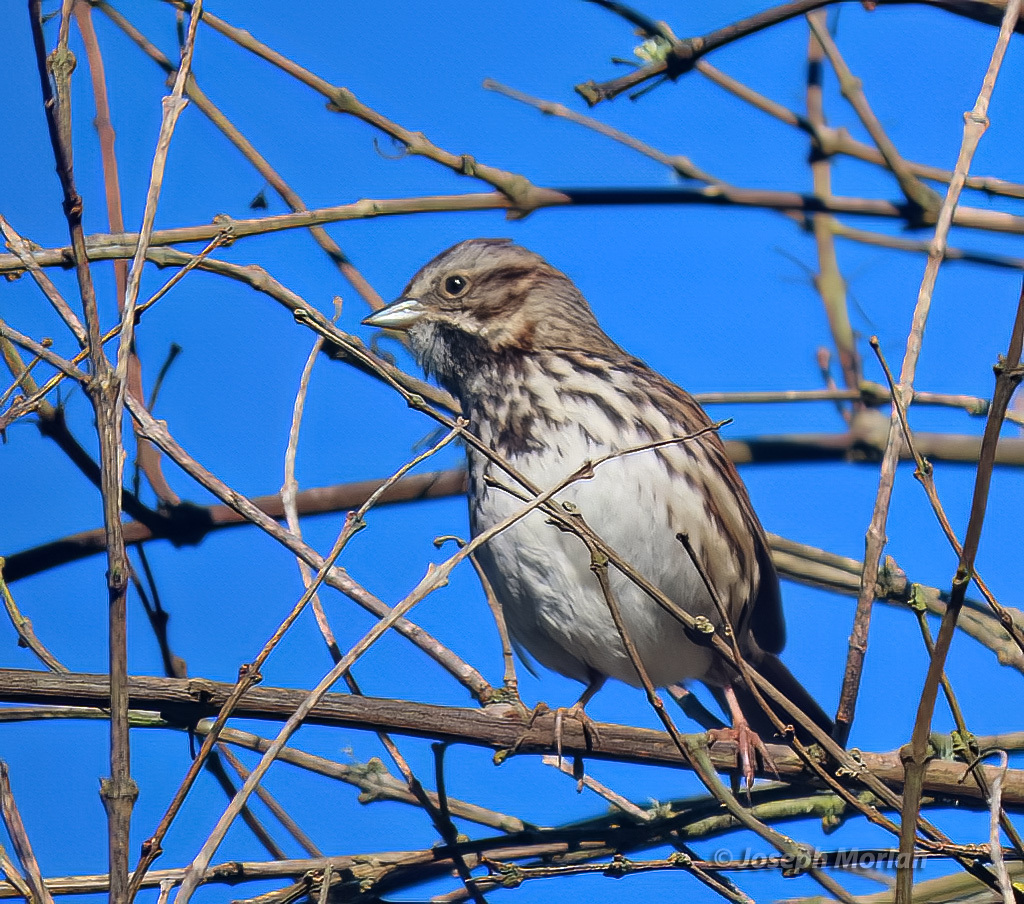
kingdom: Animalia
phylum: Chordata
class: Aves
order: Passeriformes
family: Passerellidae
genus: Melospiza
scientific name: Melospiza melodia
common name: Song sparrow
